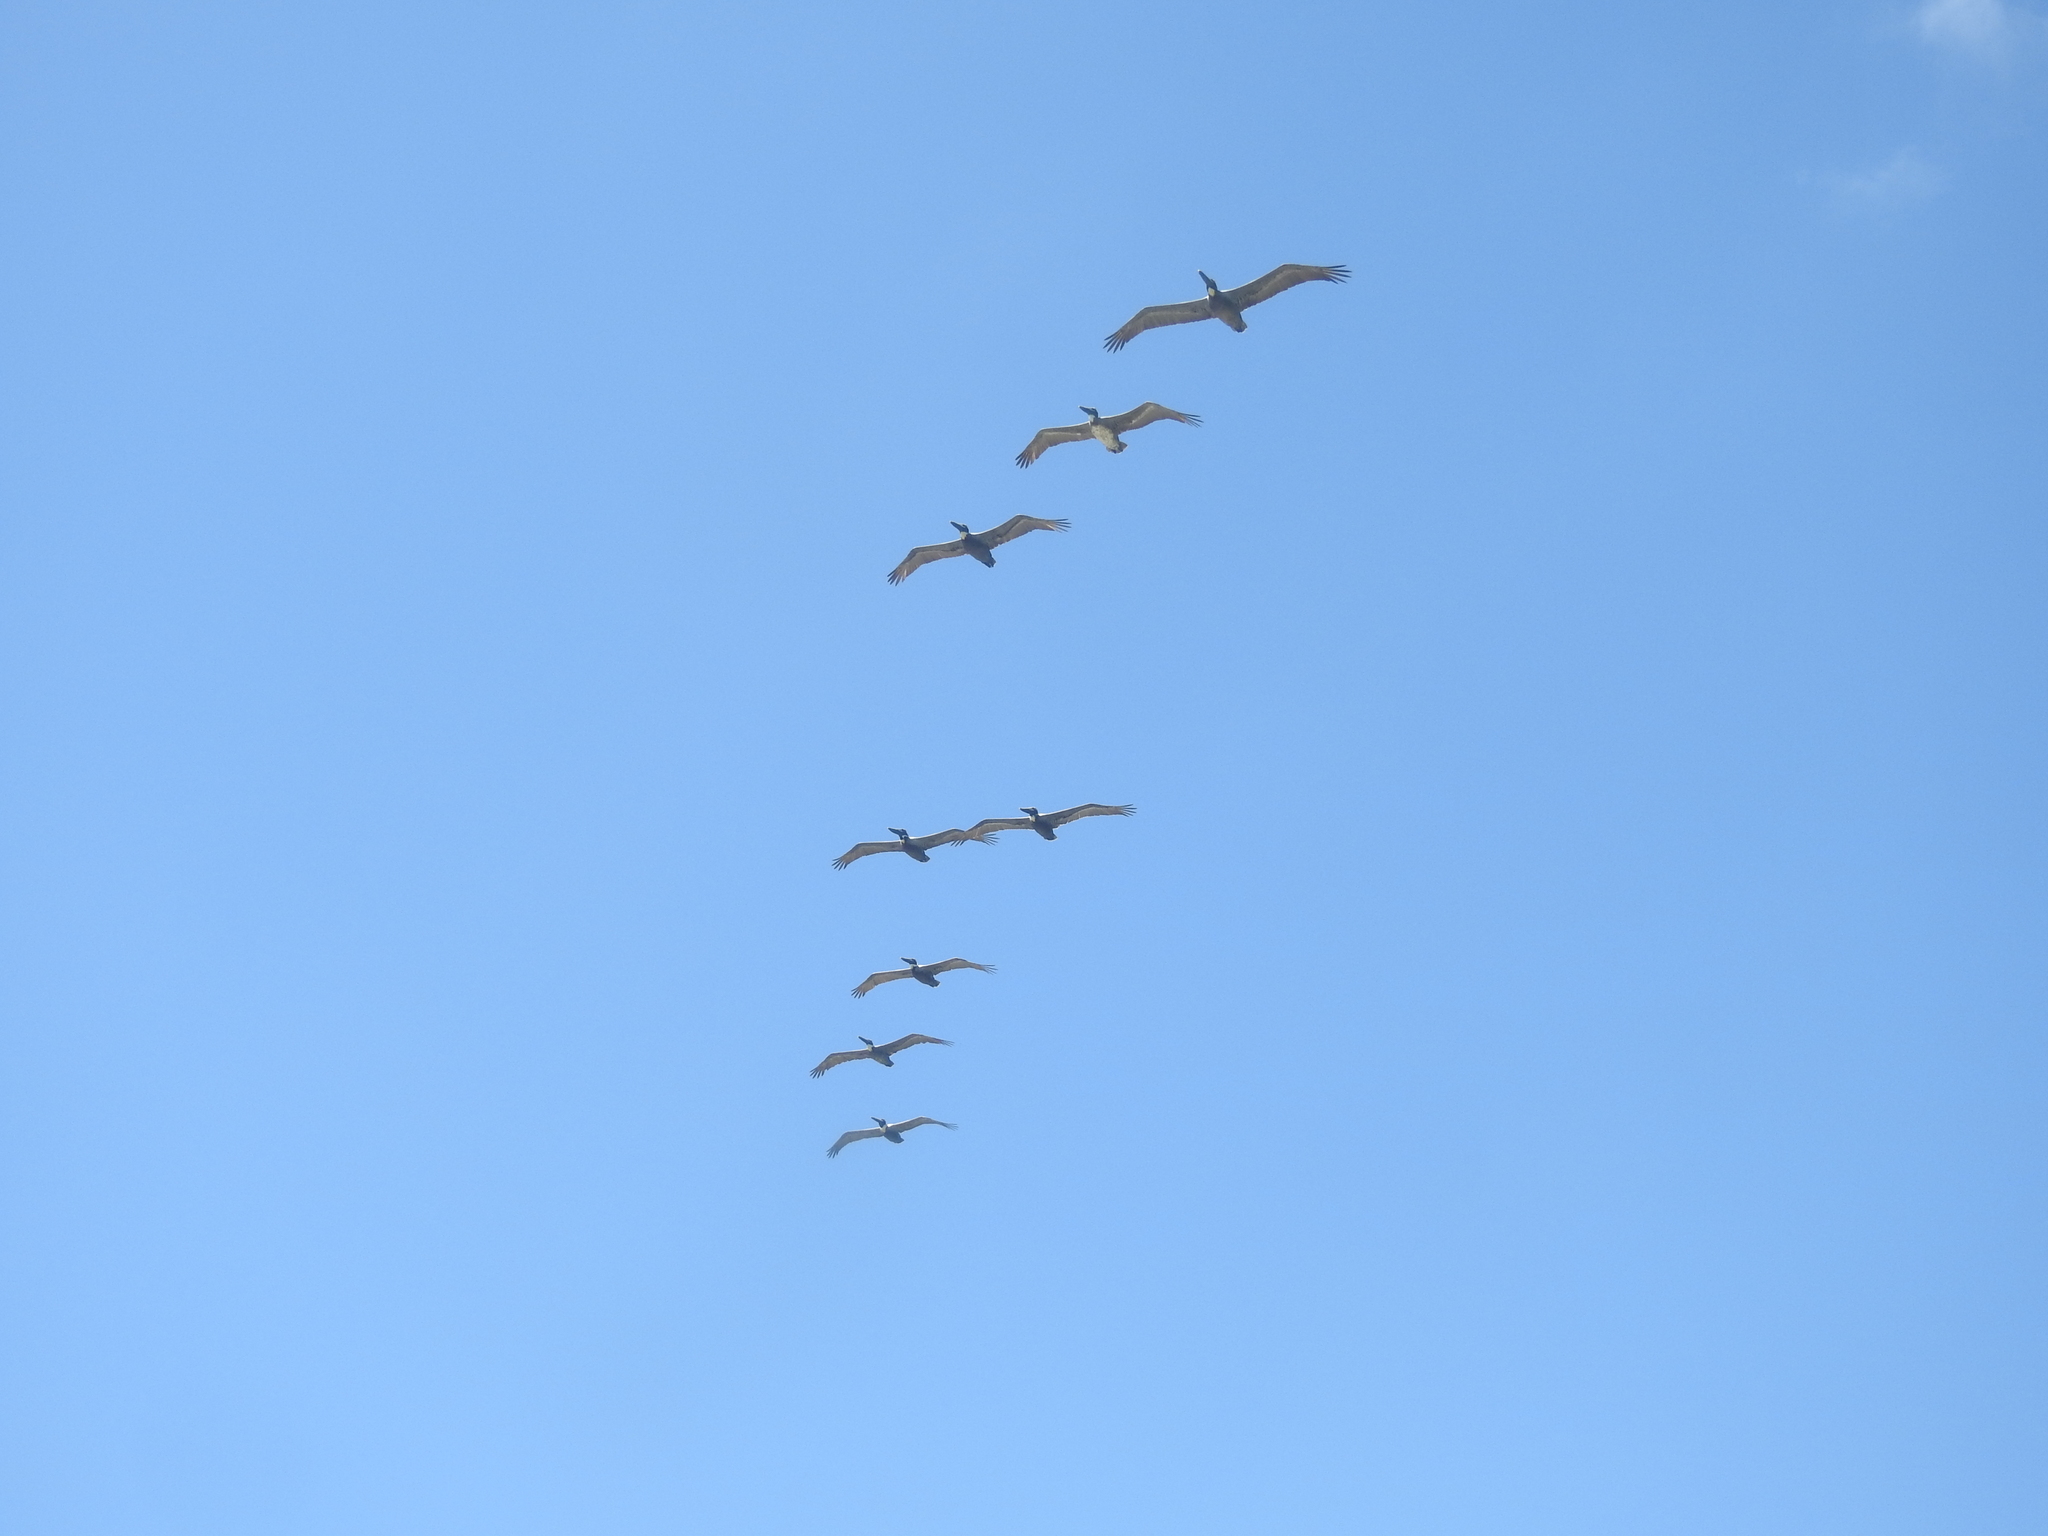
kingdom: Animalia
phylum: Chordata
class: Aves
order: Pelecaniformes
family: Pelecanidae
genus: Pelecanus
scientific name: Pelecanus occidentalis
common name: Brown pelican
